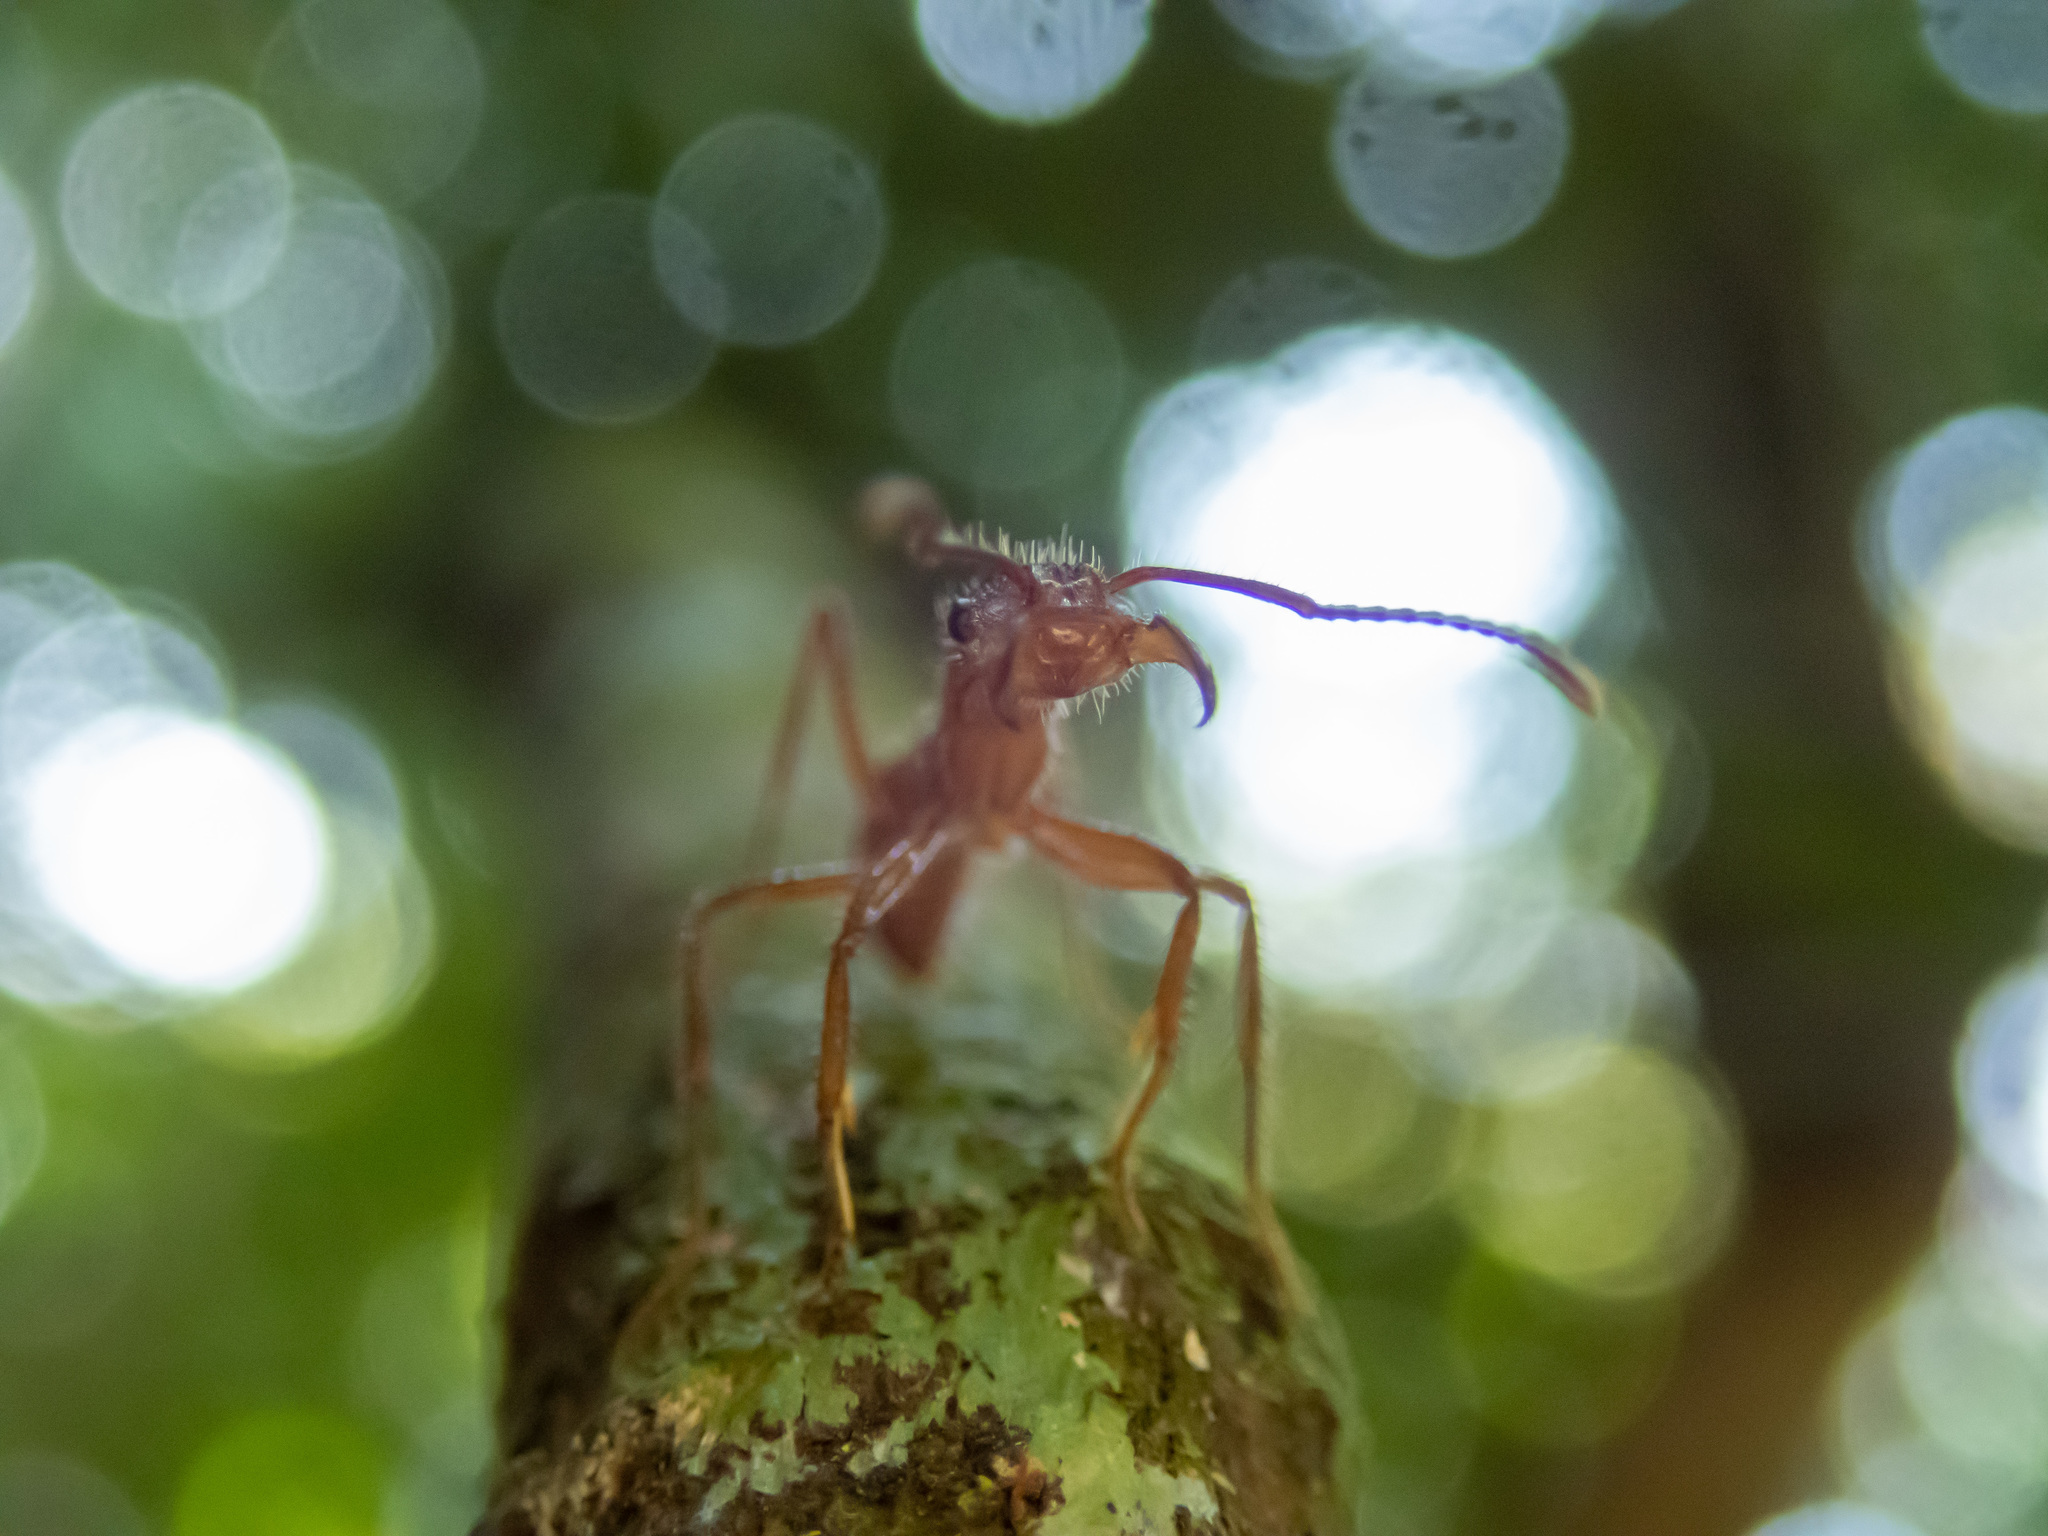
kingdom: Animalia
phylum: Arthropoda
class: Insecta
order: Hymenoptera
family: Formicidae
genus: Ectatomma
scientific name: Ectatomma tuberculatum
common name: Ant
